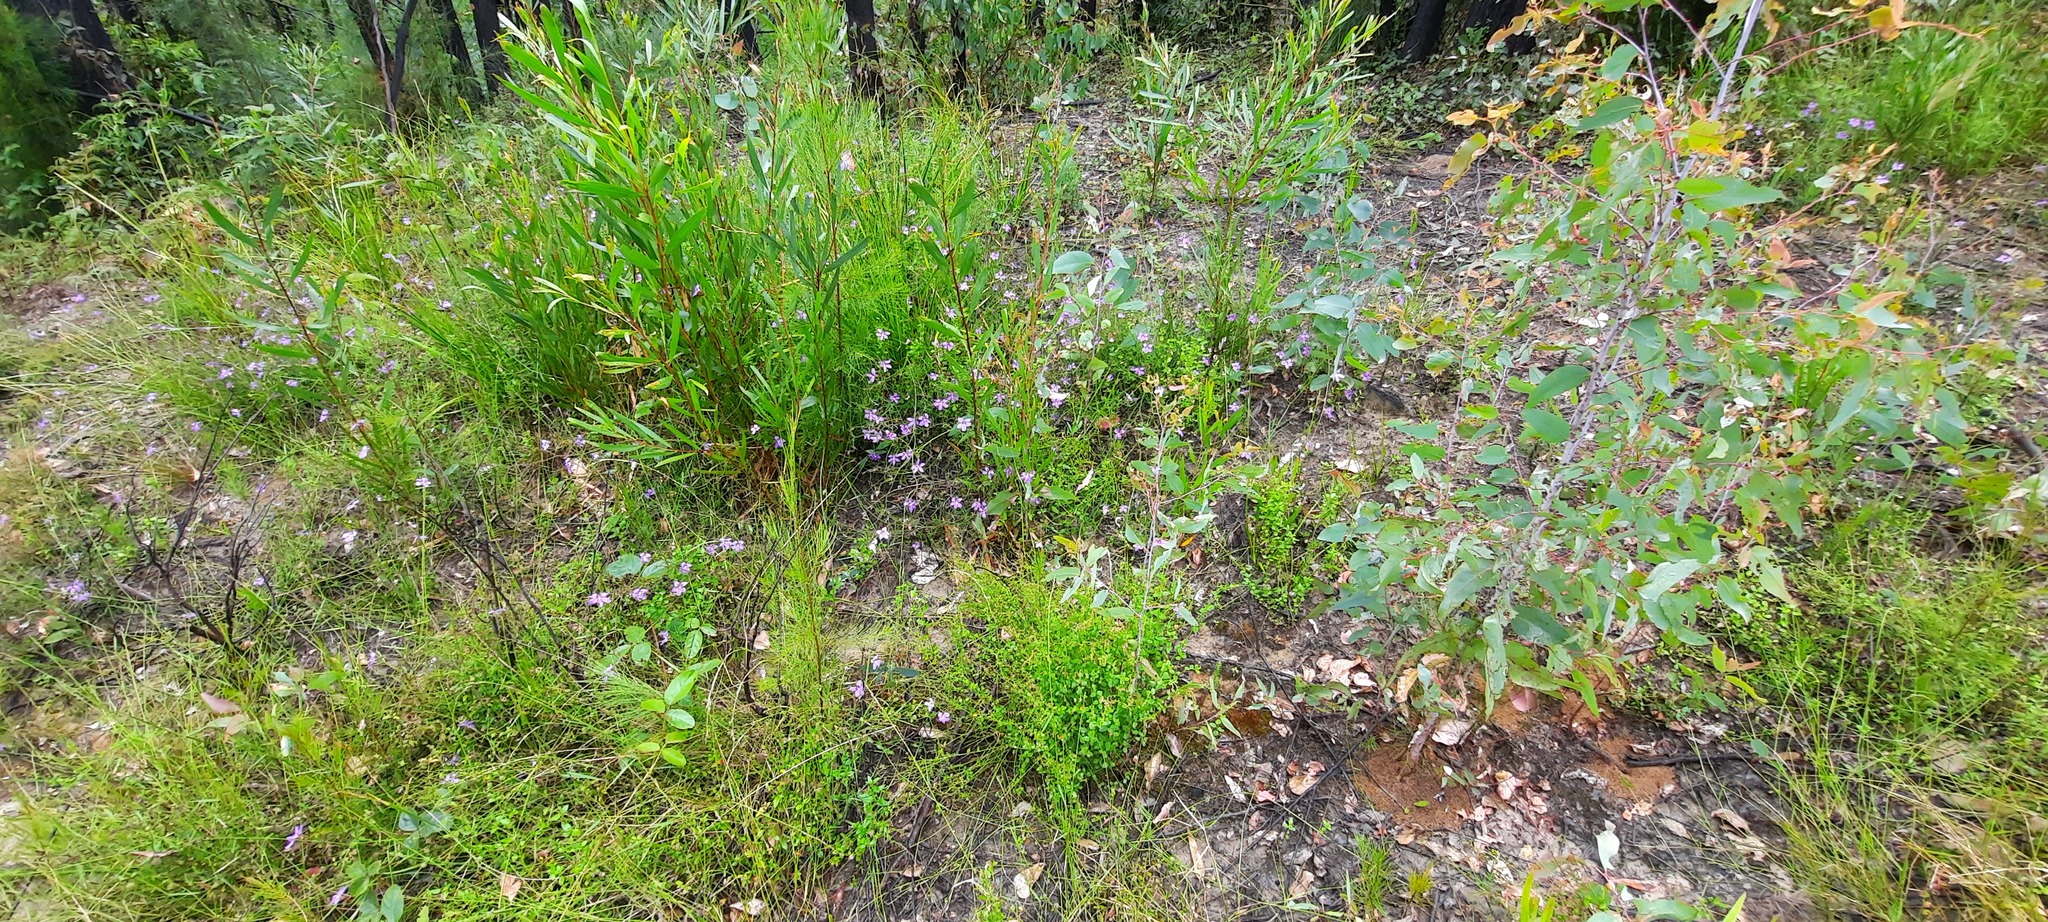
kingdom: Plantae
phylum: Tracheophyta
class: Magnoliopsida
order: Asterales
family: Goodeniaceae
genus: Scaevola
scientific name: Scaevola ramosissima
